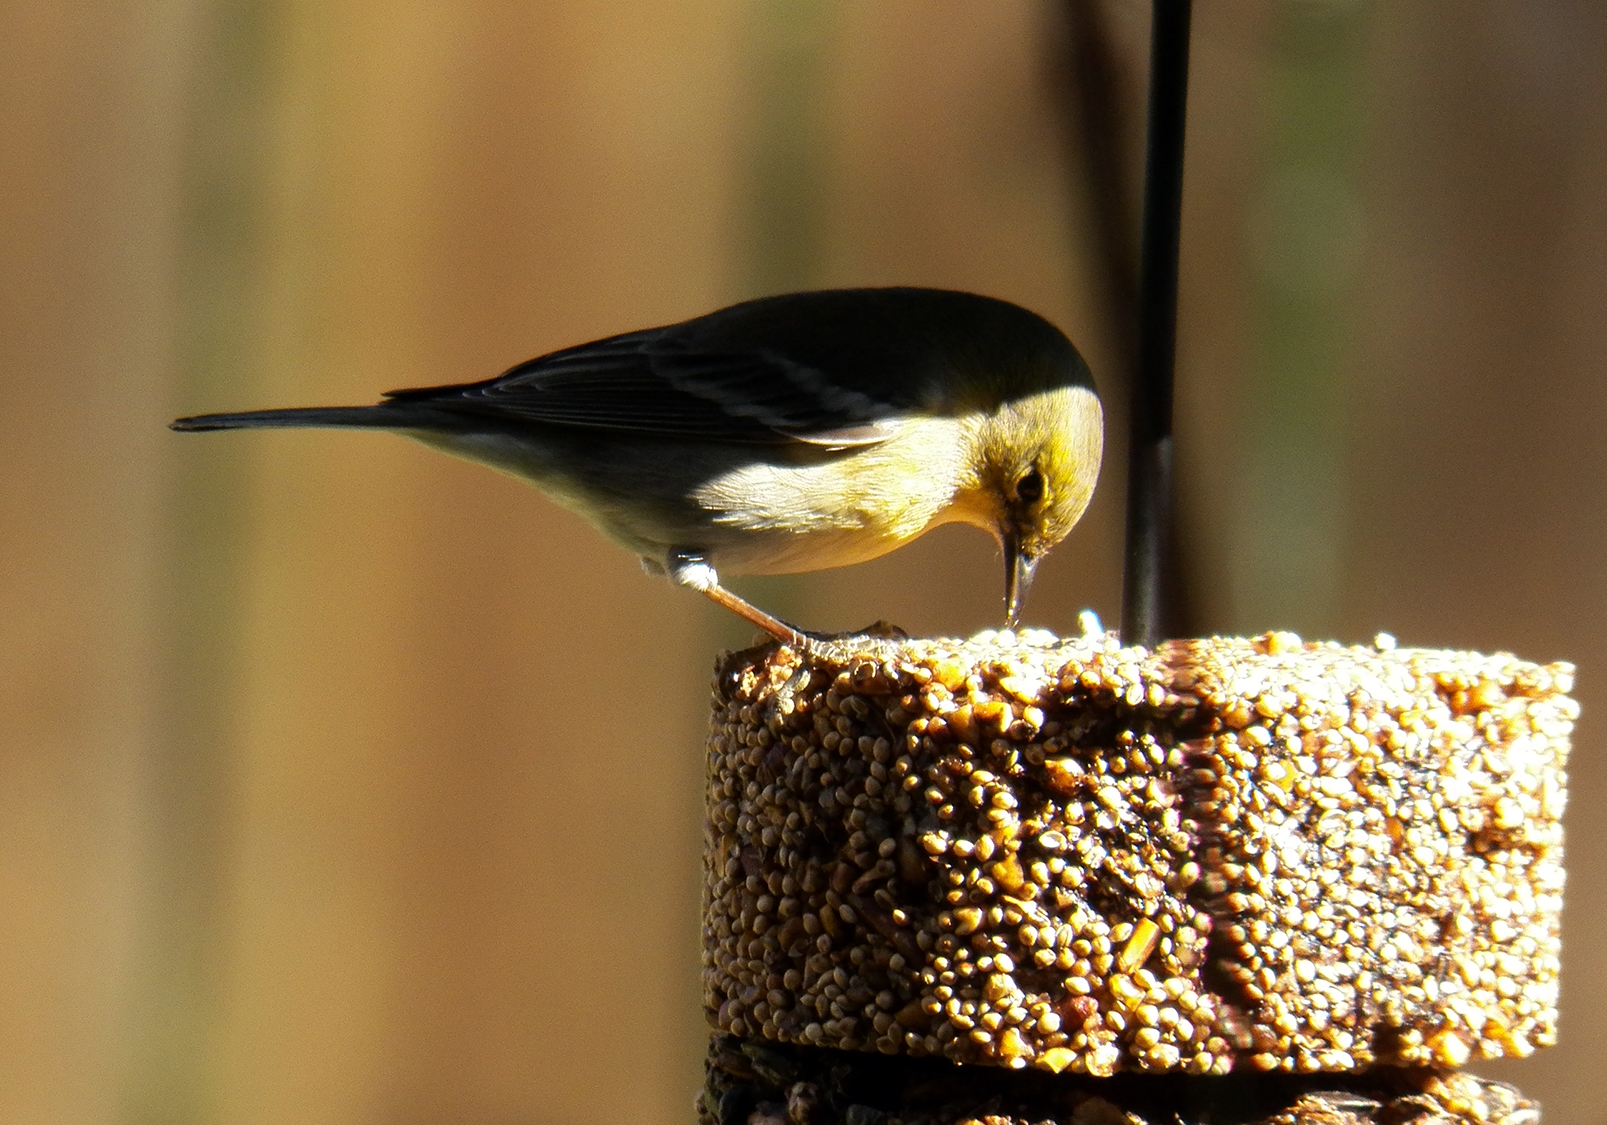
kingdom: Animalia
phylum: Chordata
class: Aves
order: Passeriformes
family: Parulidae
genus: Setophaga
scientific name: Setophaga pinus
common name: Pine warbler
